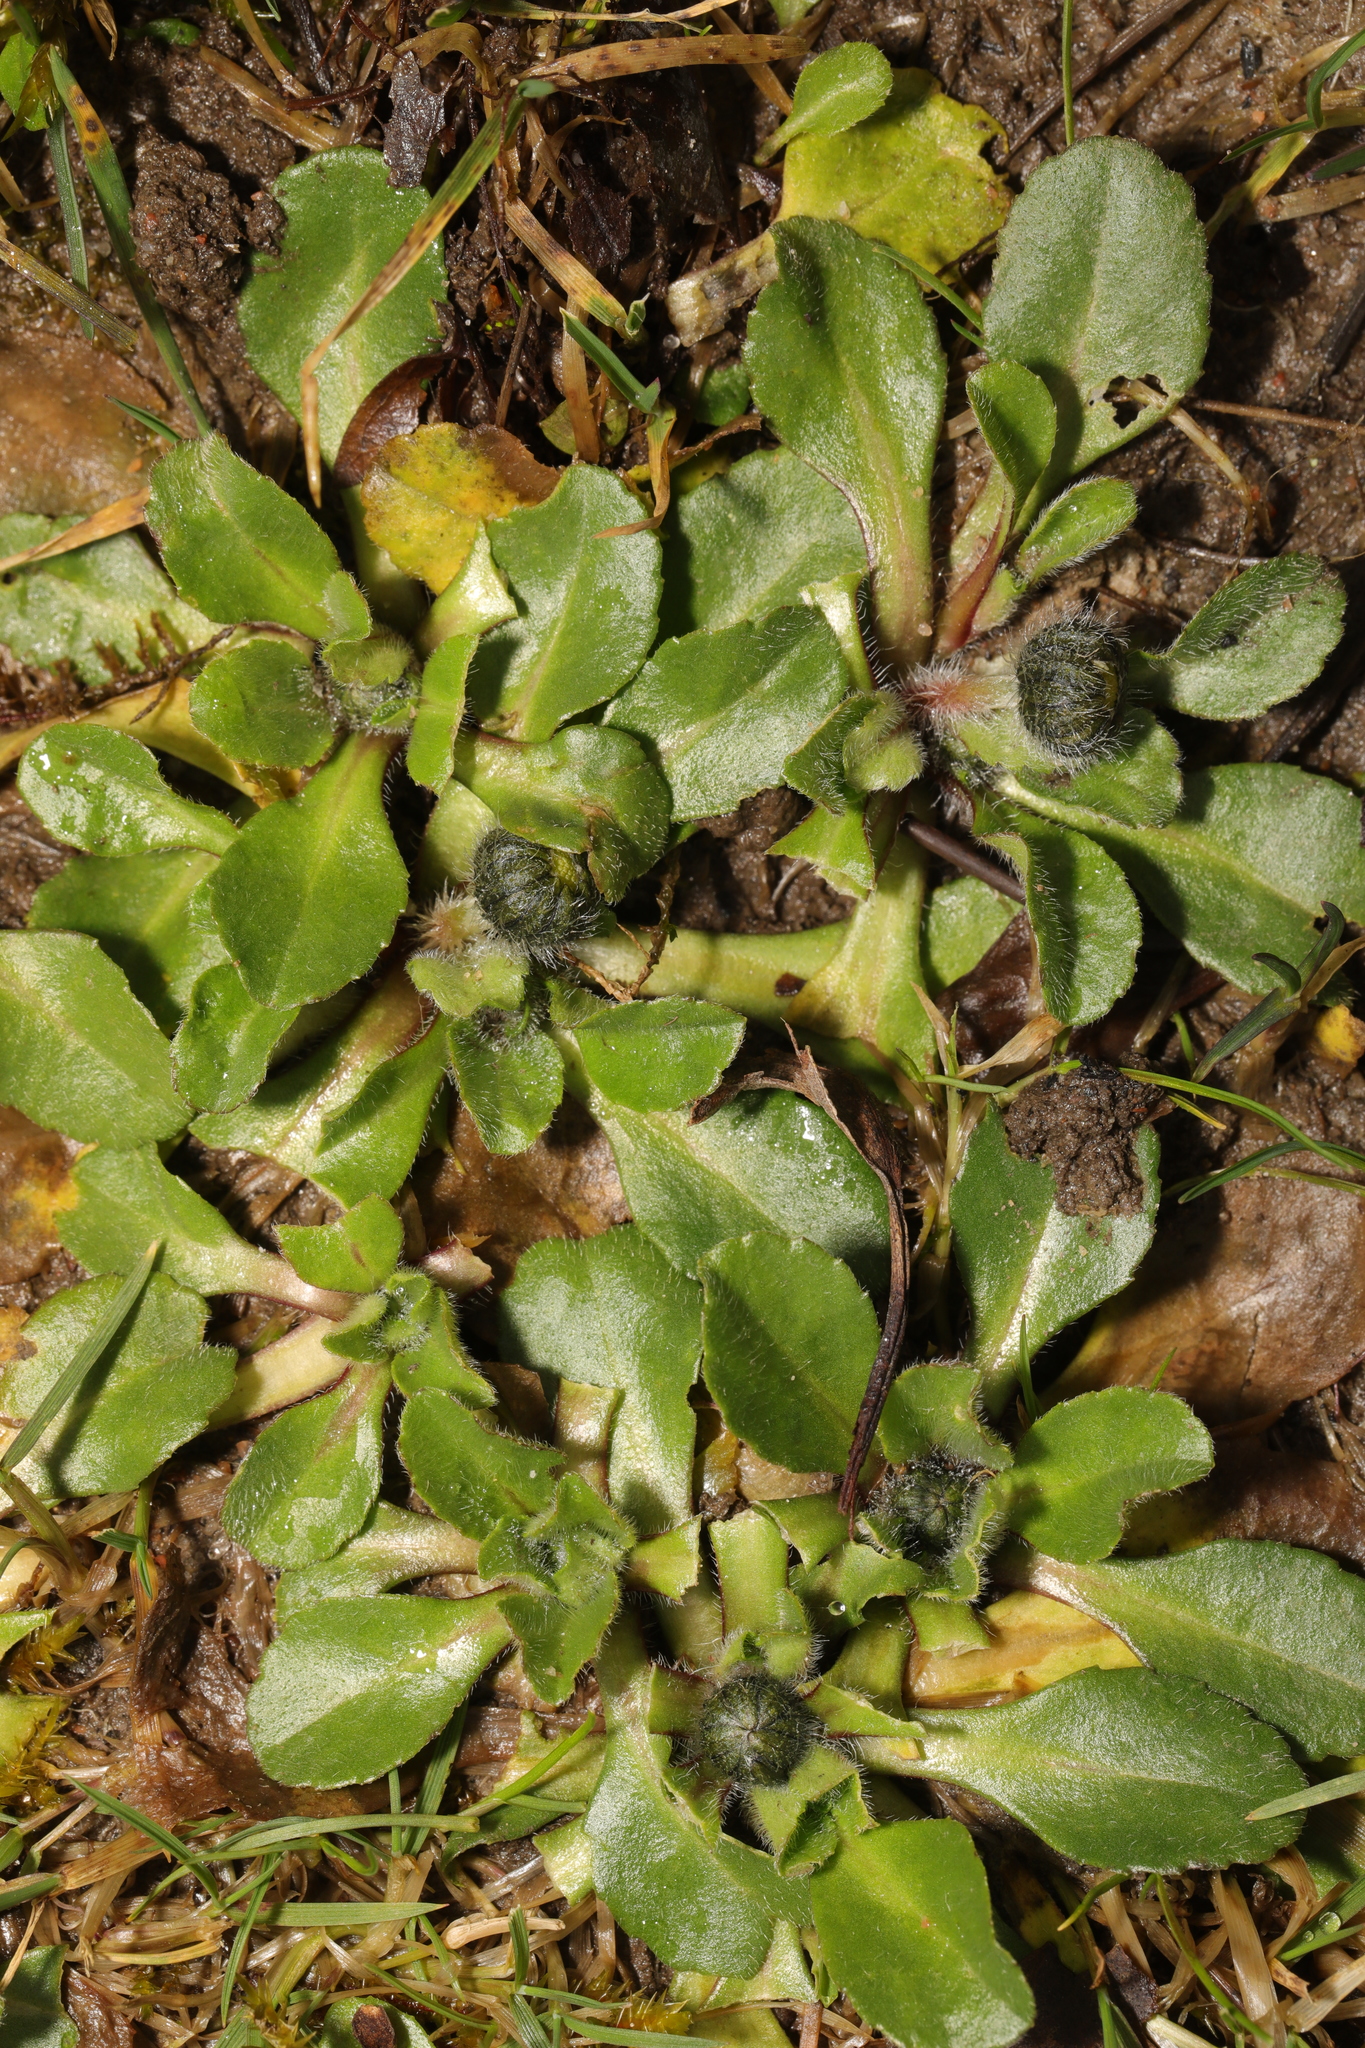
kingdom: Plantae
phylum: Tracheophyta
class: Magnoliopsida
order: Asterales
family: Asteraceae
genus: Bellis
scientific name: Bellis perennis
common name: Lawndaisy
